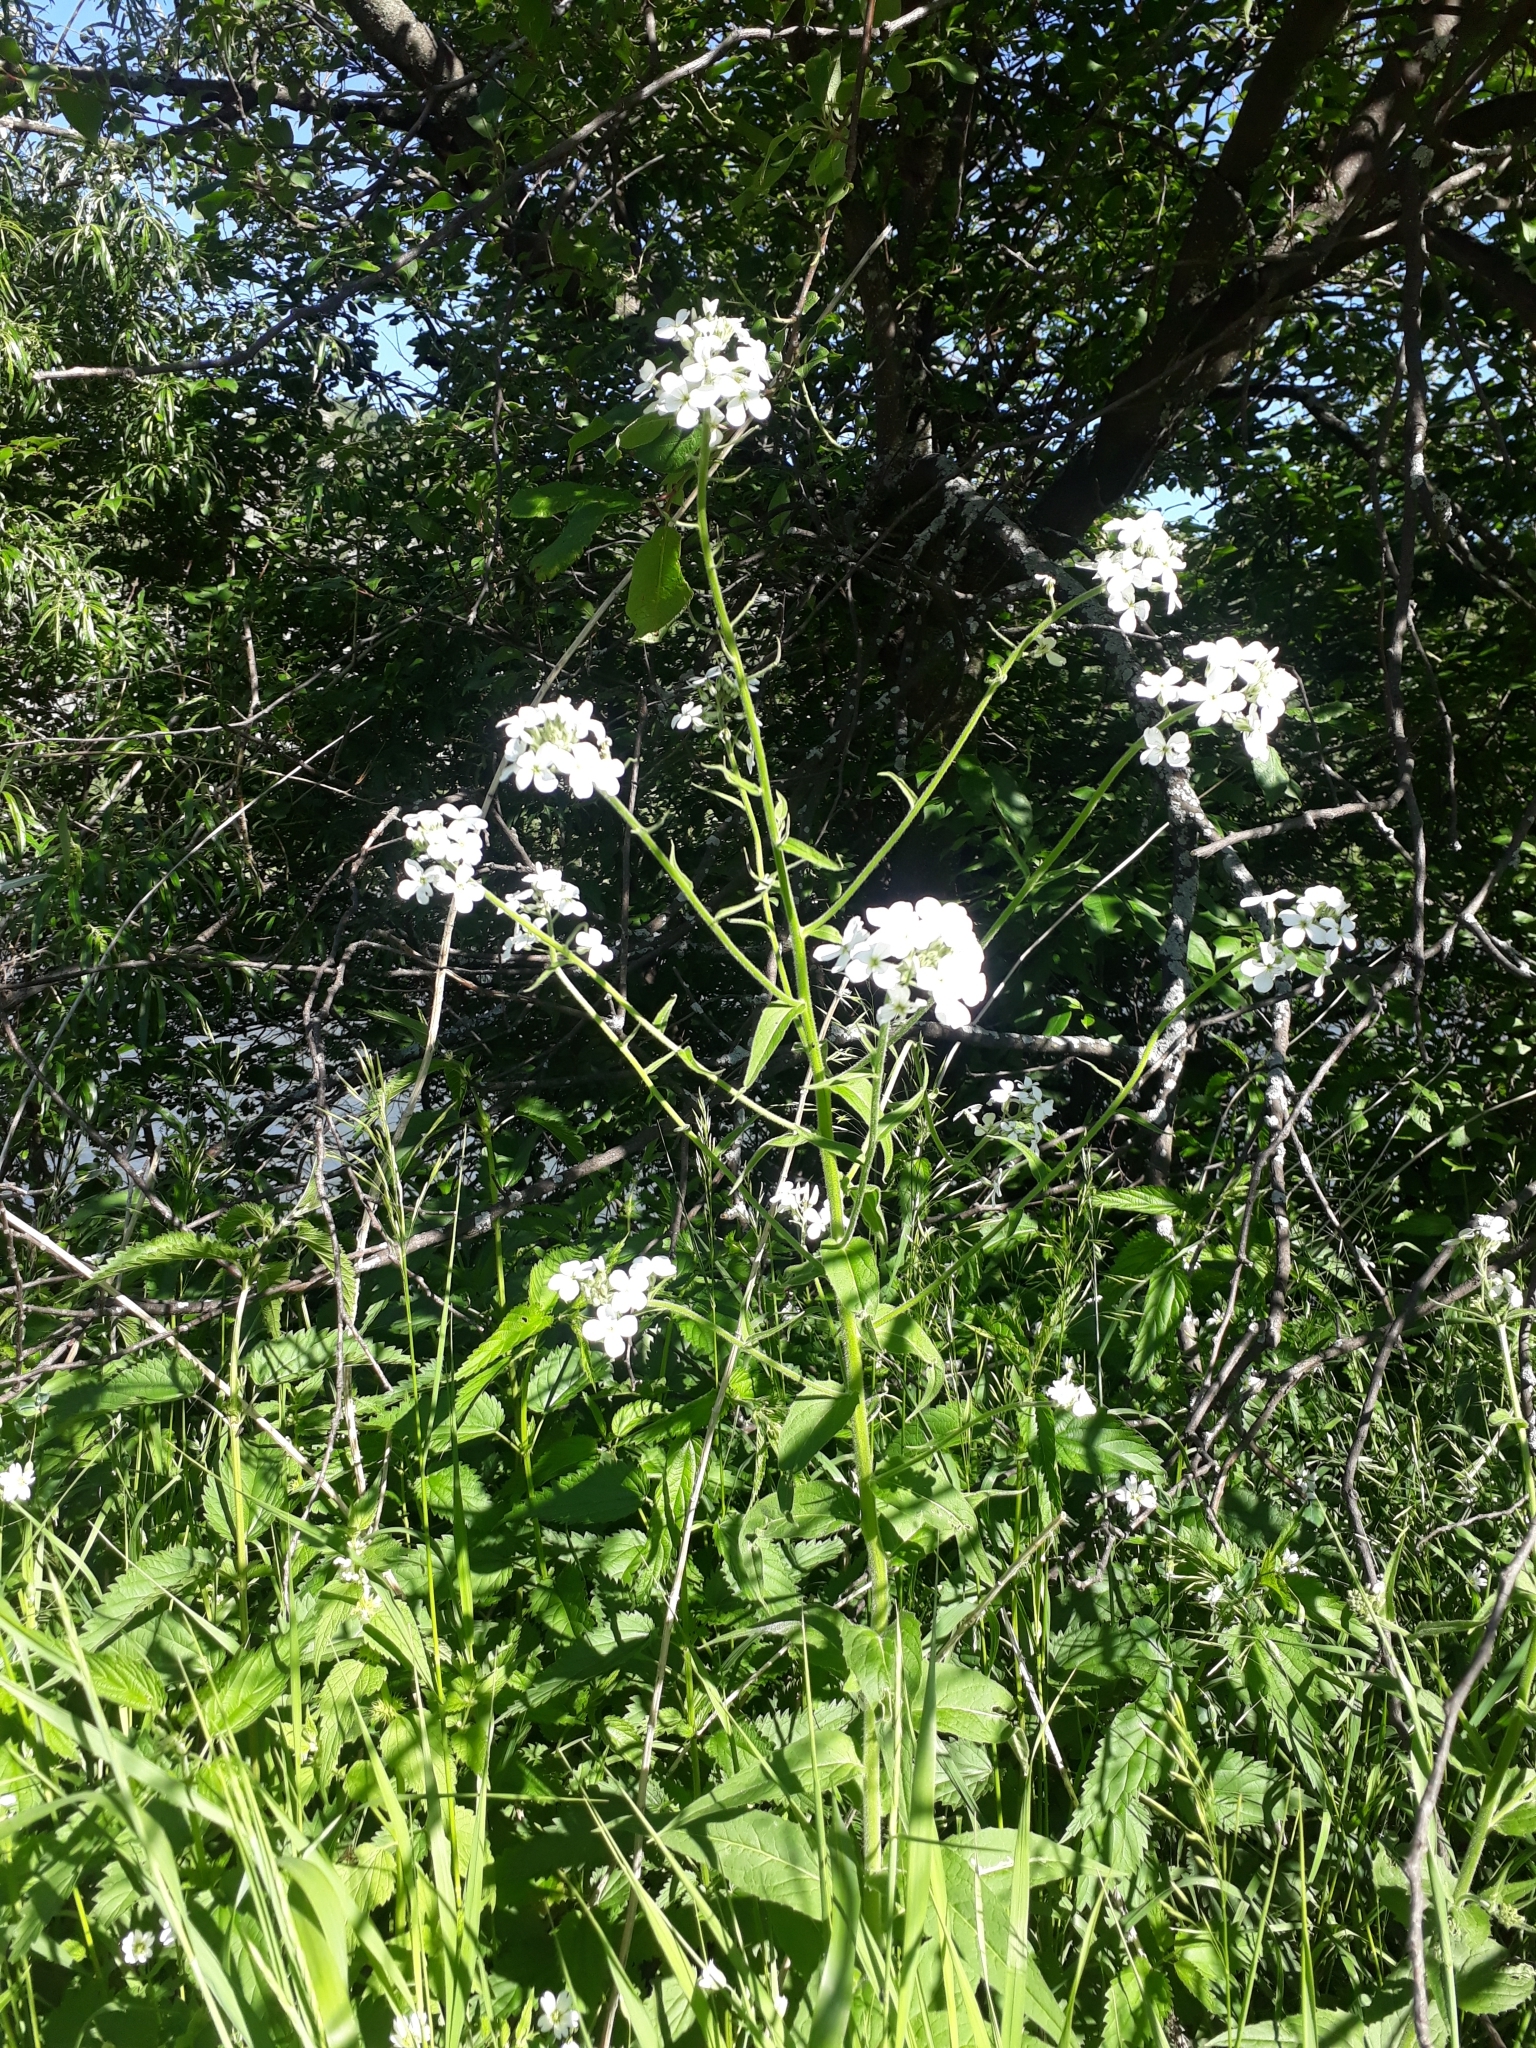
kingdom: Plantae
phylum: Tracheophyta
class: Magnoliopsida
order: Brassicales
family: Brassicaceae
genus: Hesperis
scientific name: Hesperis sibirica
